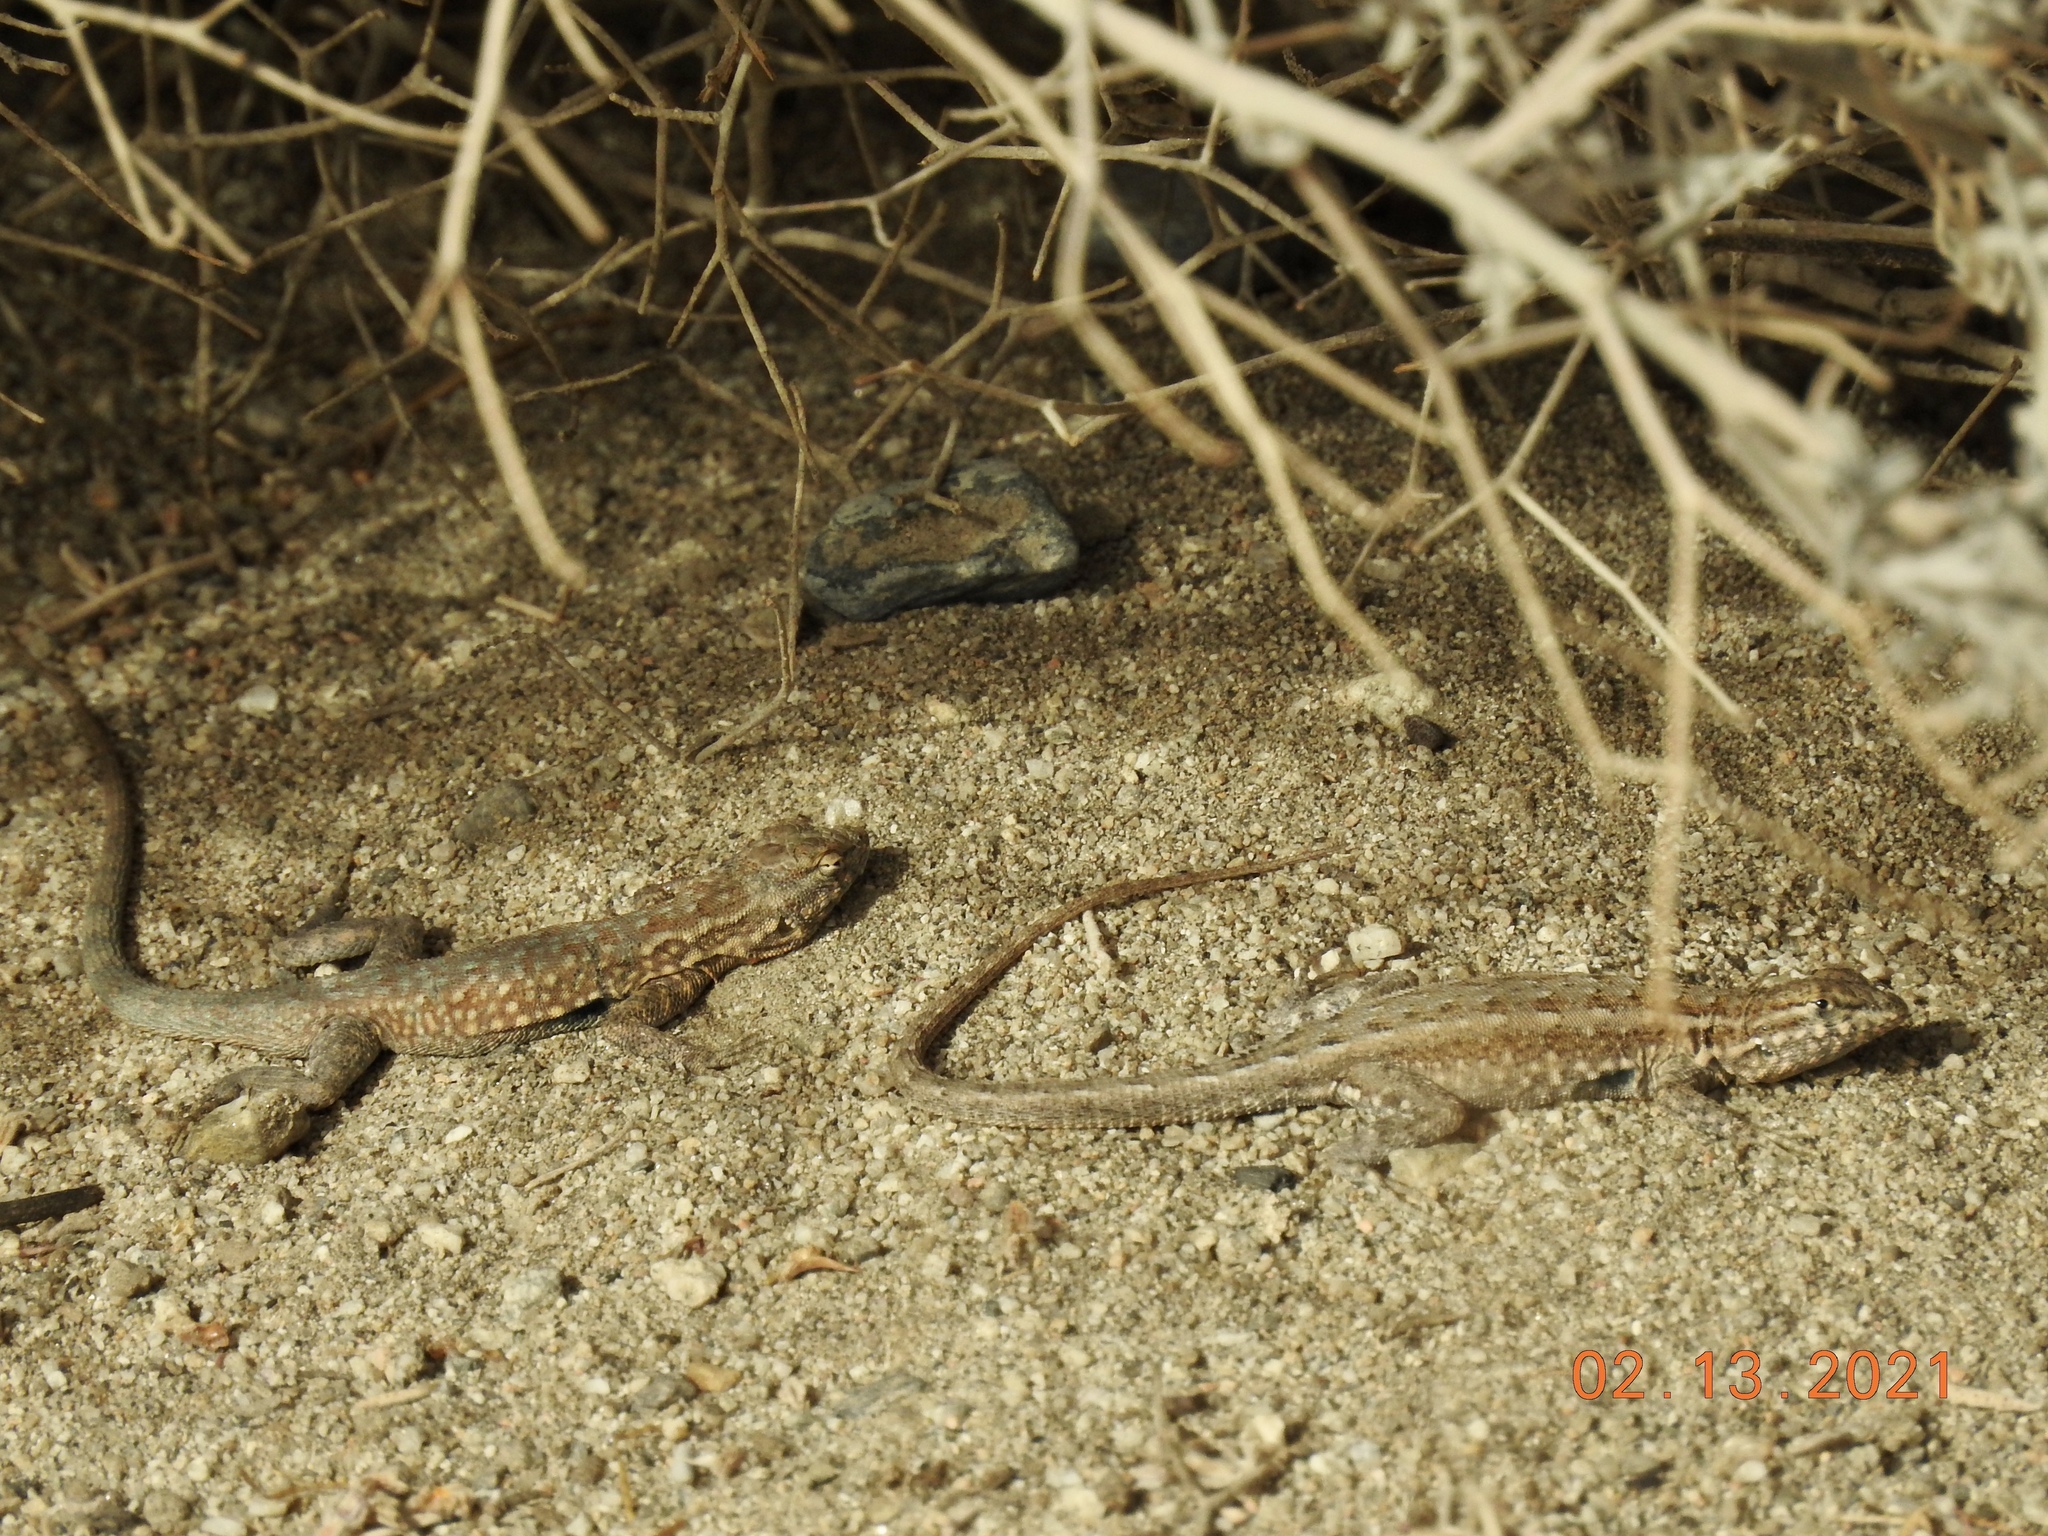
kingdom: Animalia
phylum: Chordata
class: Squamata
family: Phrynosomatidae
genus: Uta
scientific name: Uta stansburiana
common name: Side-blotched lizard
